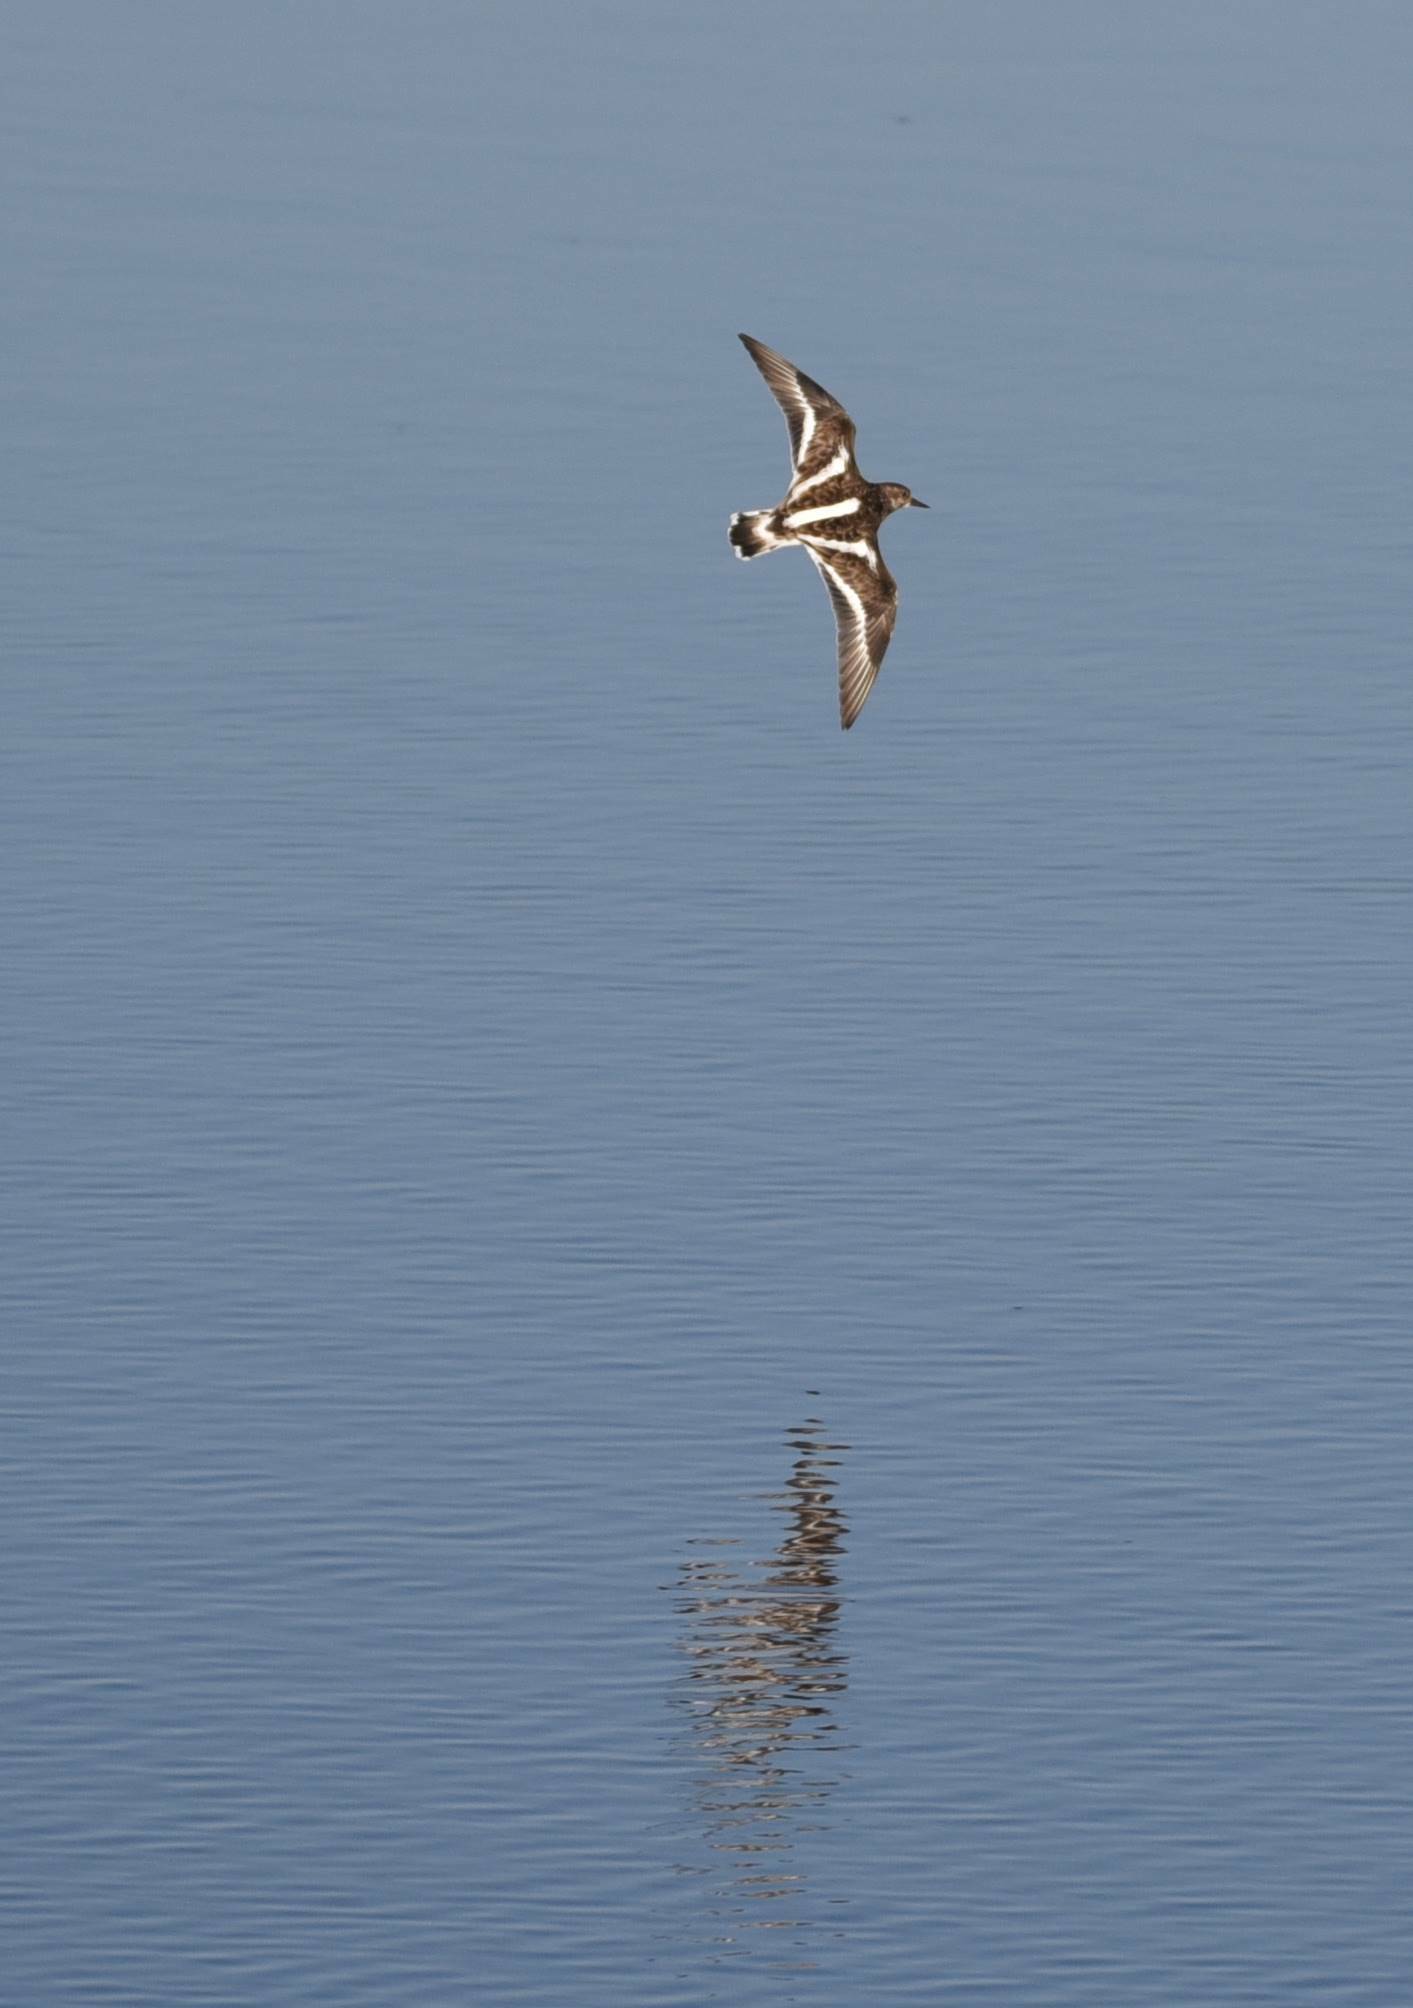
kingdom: Animalia
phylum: Chordata
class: Aves
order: Charadriiformes
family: Scolopacidae
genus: Arenaria
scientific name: Arenaria interpres
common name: Ruddy turnstone
